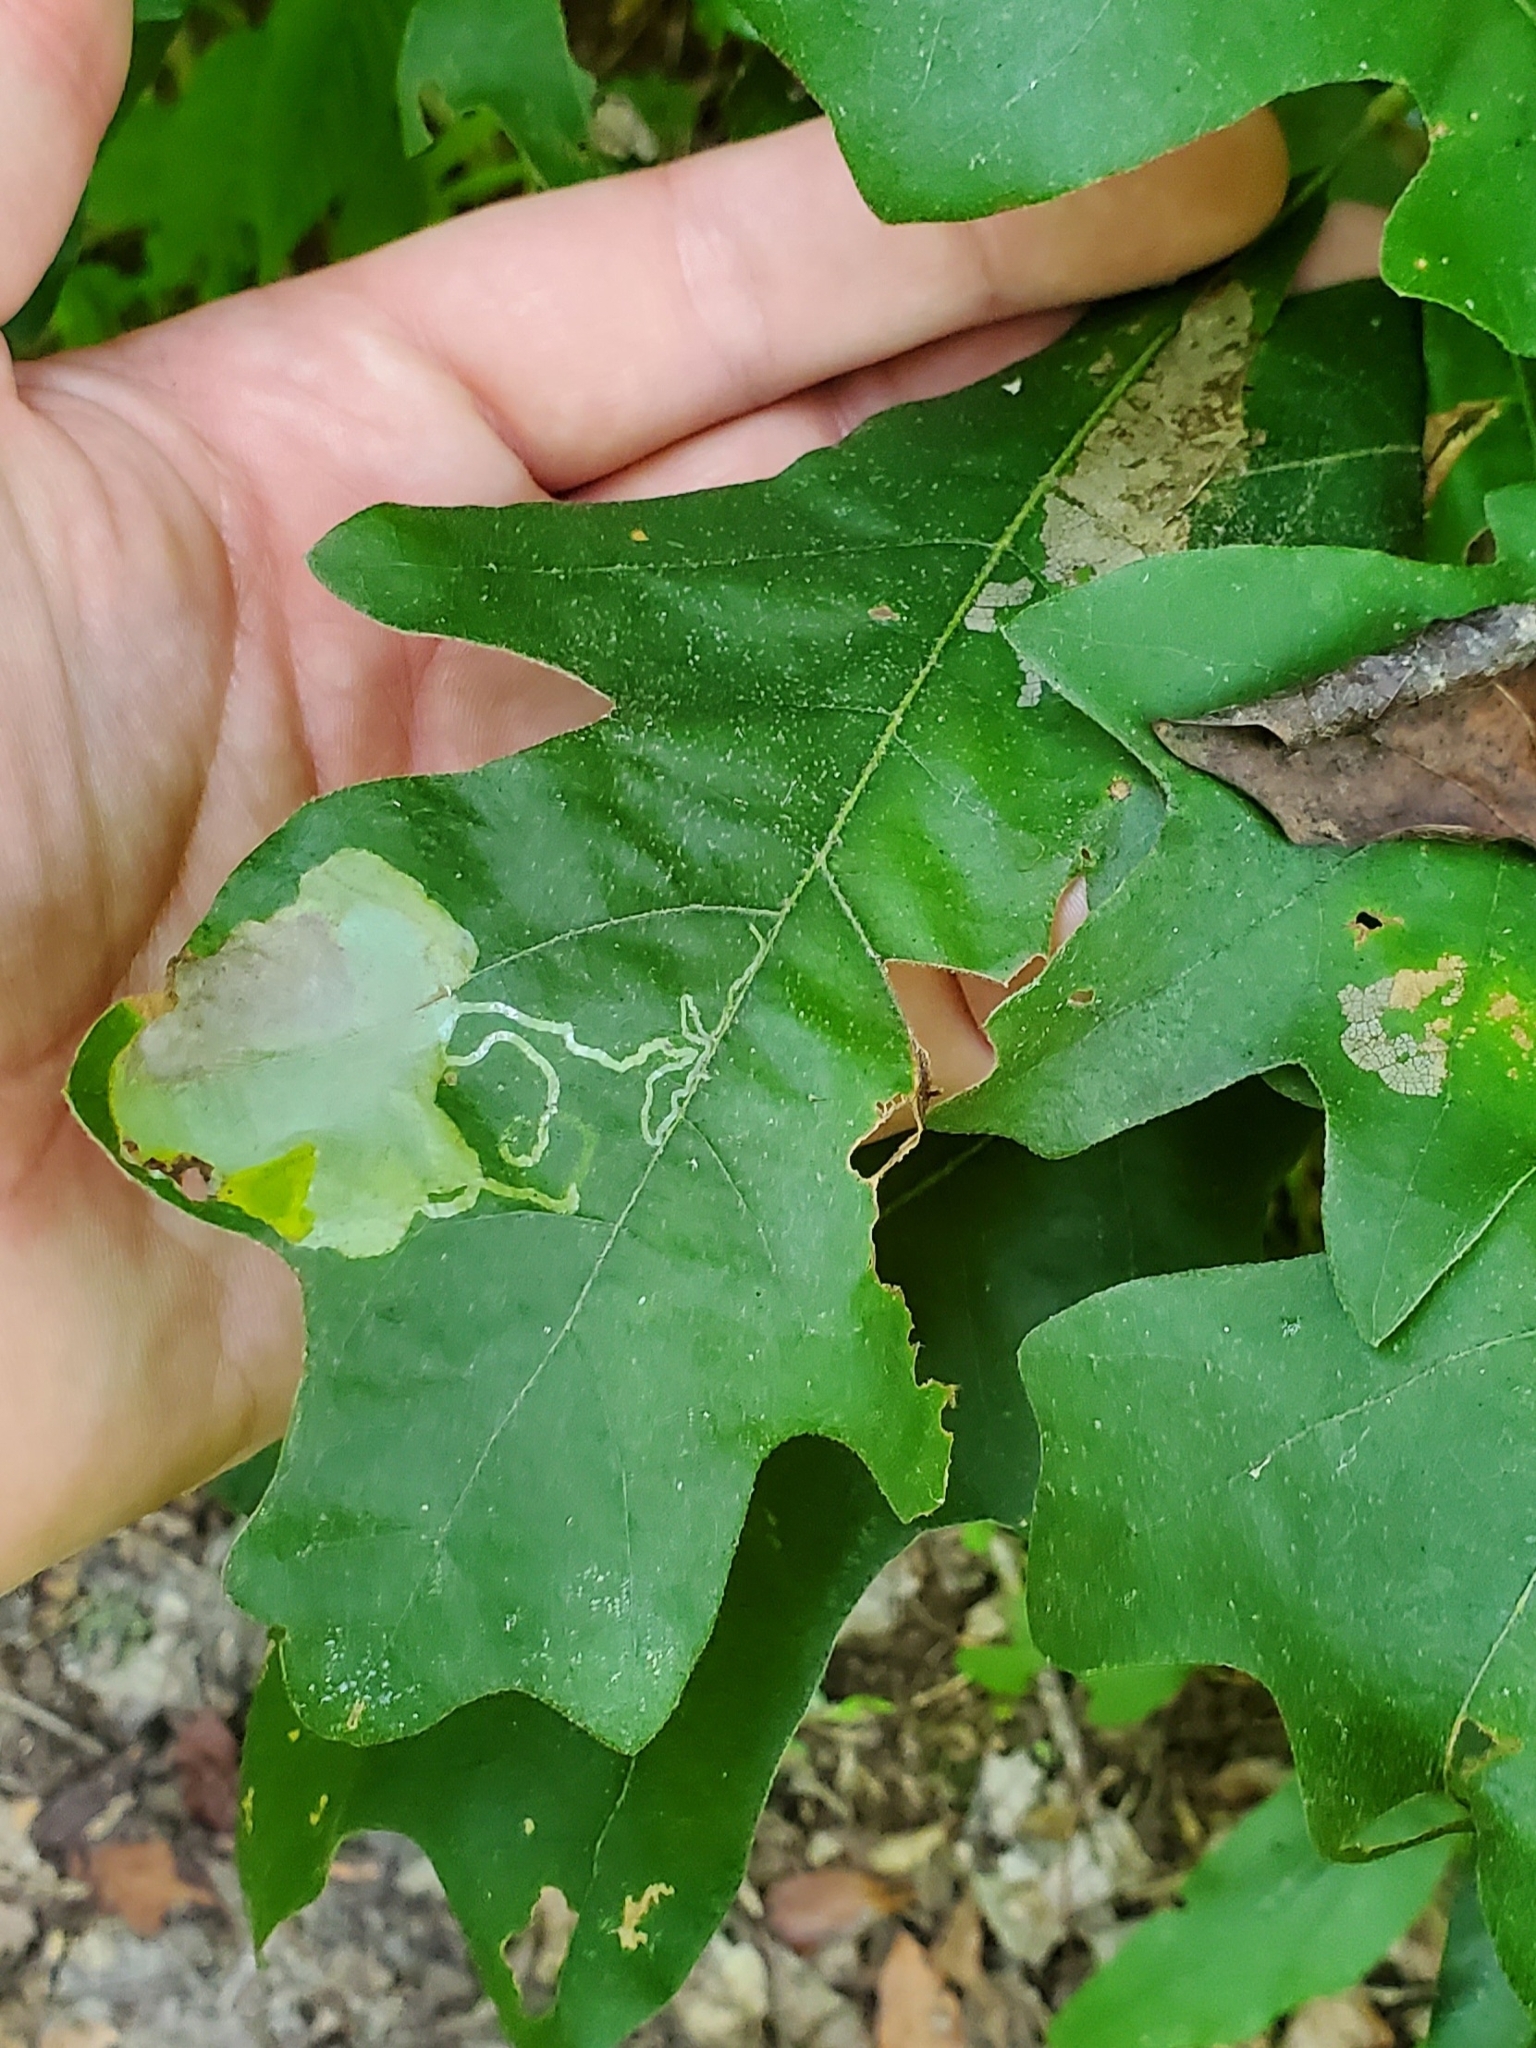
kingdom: Animalia
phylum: Arthropoda
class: Insecta
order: Lepidoptera
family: Gracillariidae
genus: Cryptolectica
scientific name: Cryptolectica
